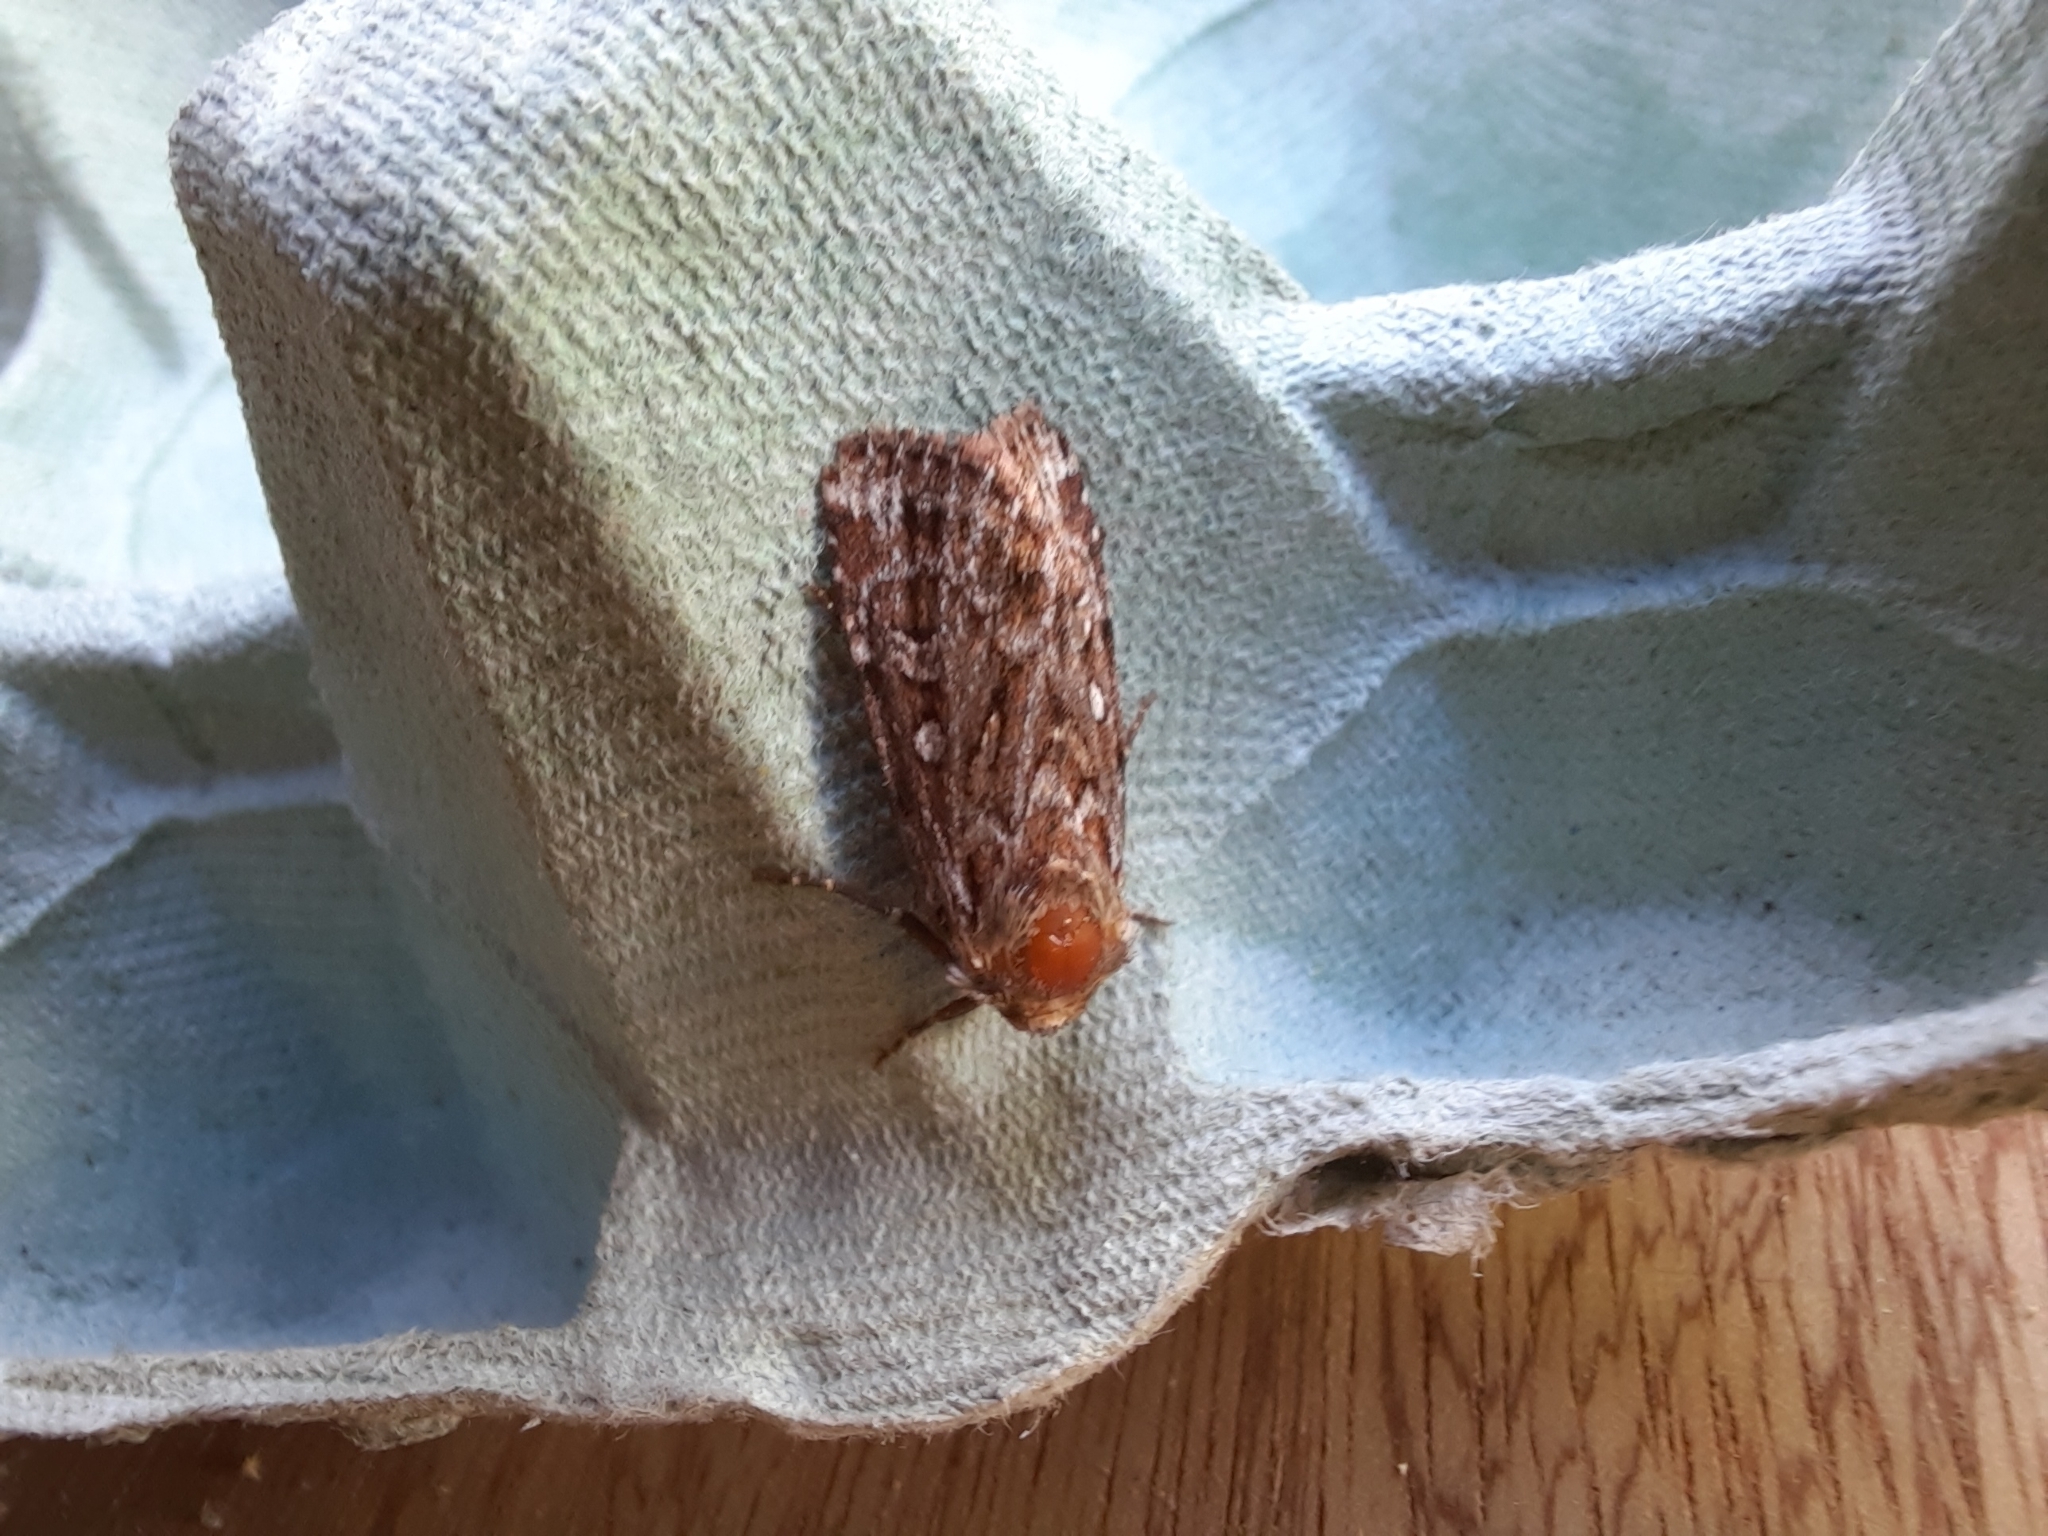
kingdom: Animalia
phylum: Arthropoda
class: Insecta
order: Lepidoptera
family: Noctuidae
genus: Lycophotia
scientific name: Lycophotia porphyrea
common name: True lover's knot
